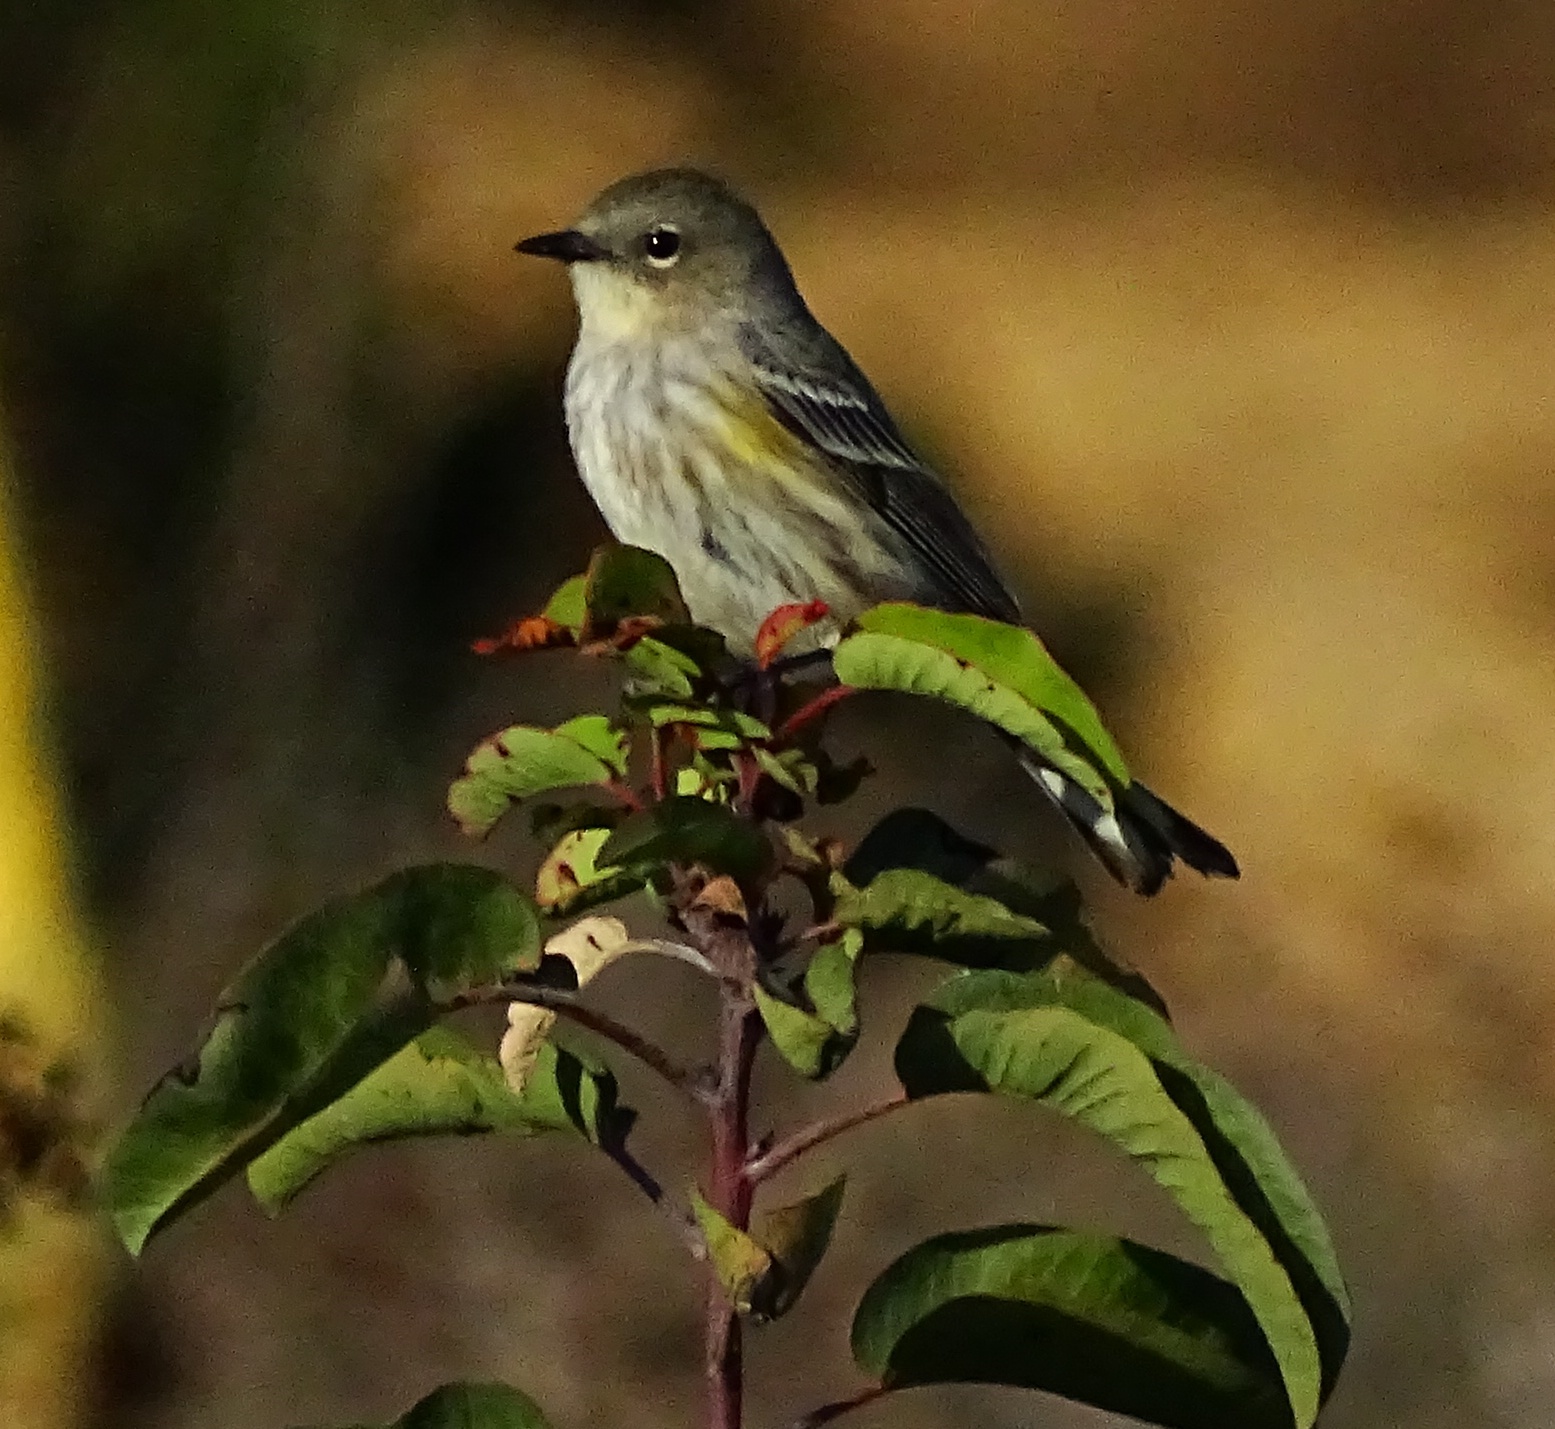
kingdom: Animalia
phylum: Chordata
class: Aves
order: Passeriformes
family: Parulidae
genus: Setophaga
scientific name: Setophaga coronata
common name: Myrtle warbler
